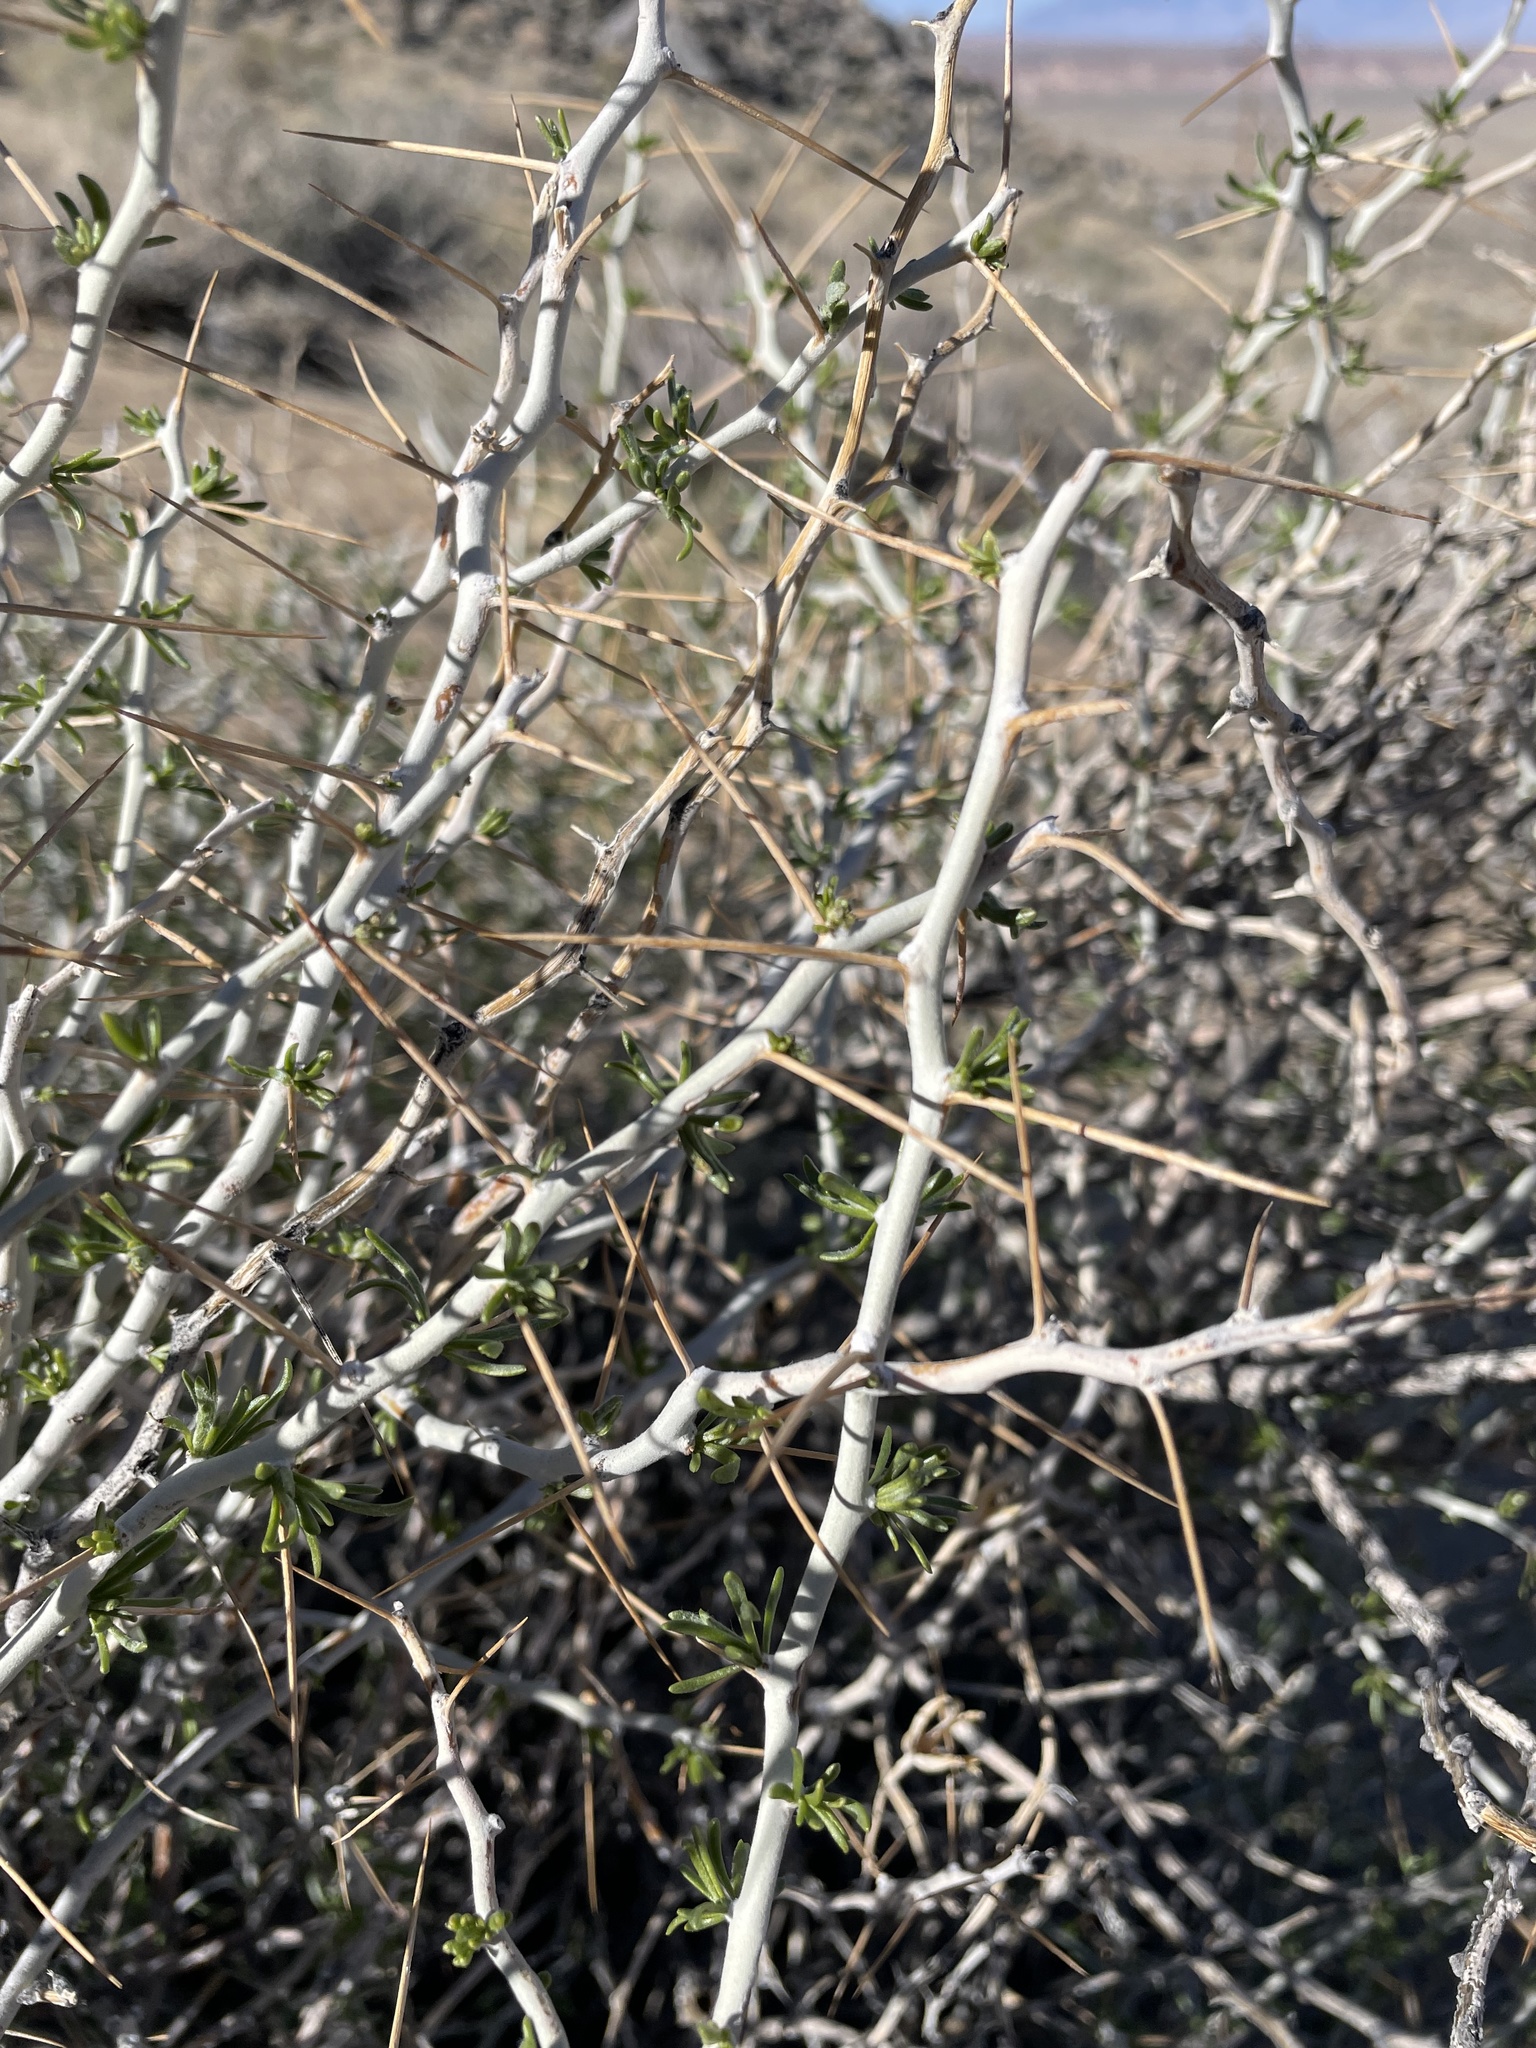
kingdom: Plantae
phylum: Tracheophyta
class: Magnoliopsida
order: Asterales
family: Asteraceae
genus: Tetradymia
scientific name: Tetradymia axillaris
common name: Long-spine horsebrush
